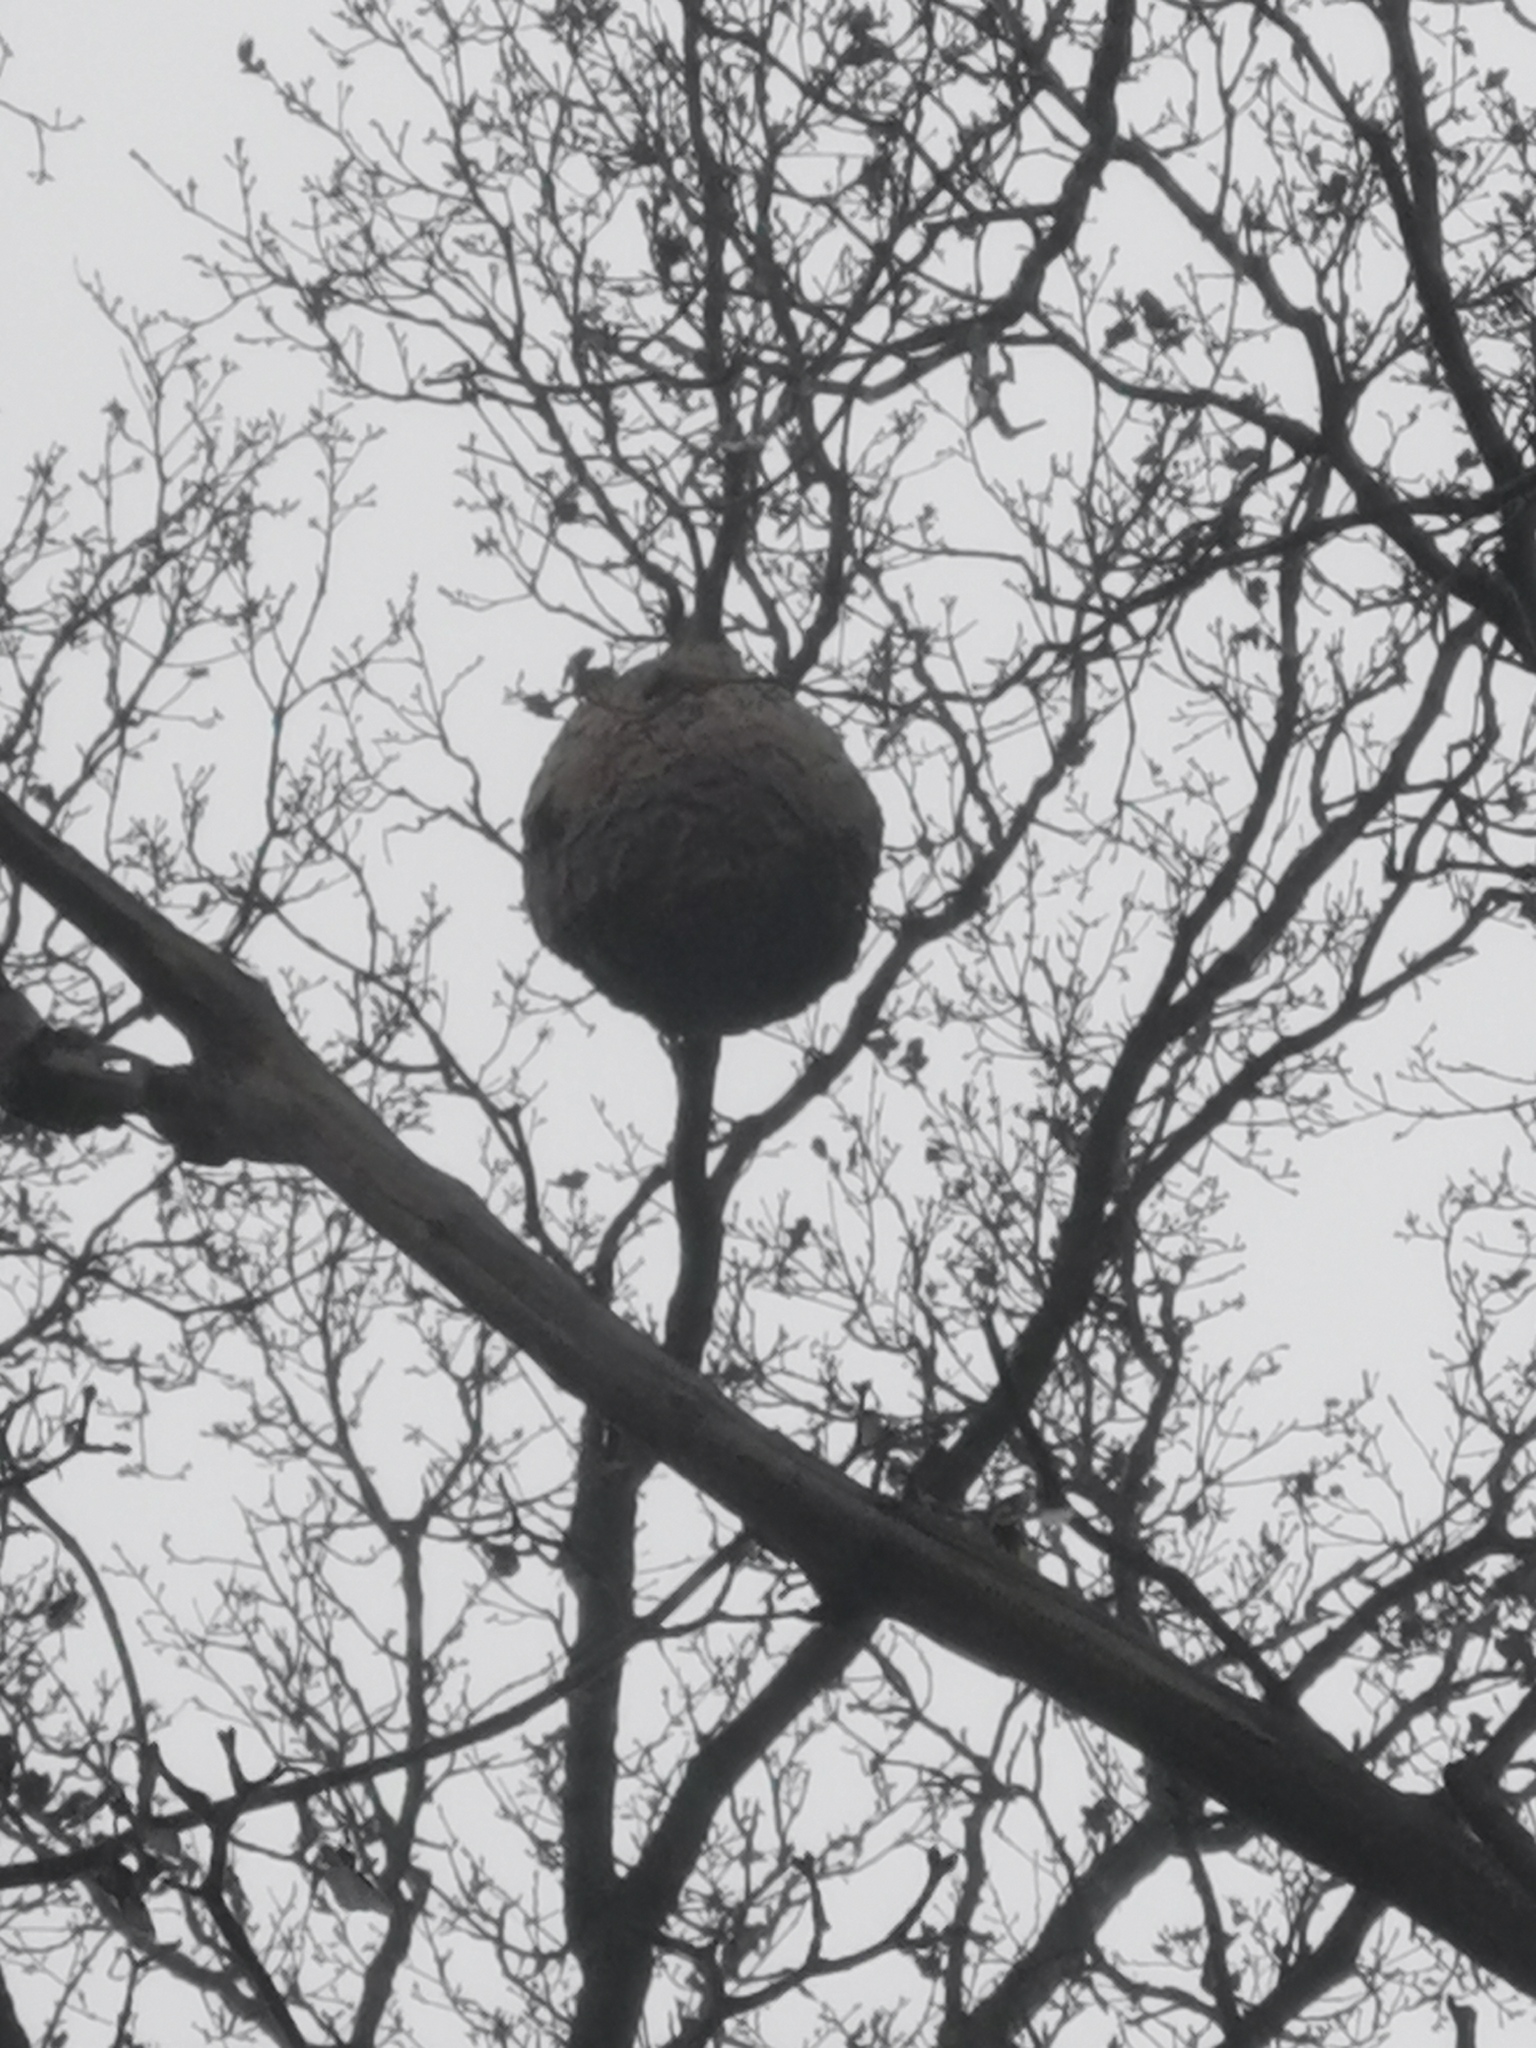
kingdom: Animalia
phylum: Arthropoda
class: Insecta
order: Hymenoptera
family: Vespidae
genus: Vespa
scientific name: Vespa velutina
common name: Asian hornet
